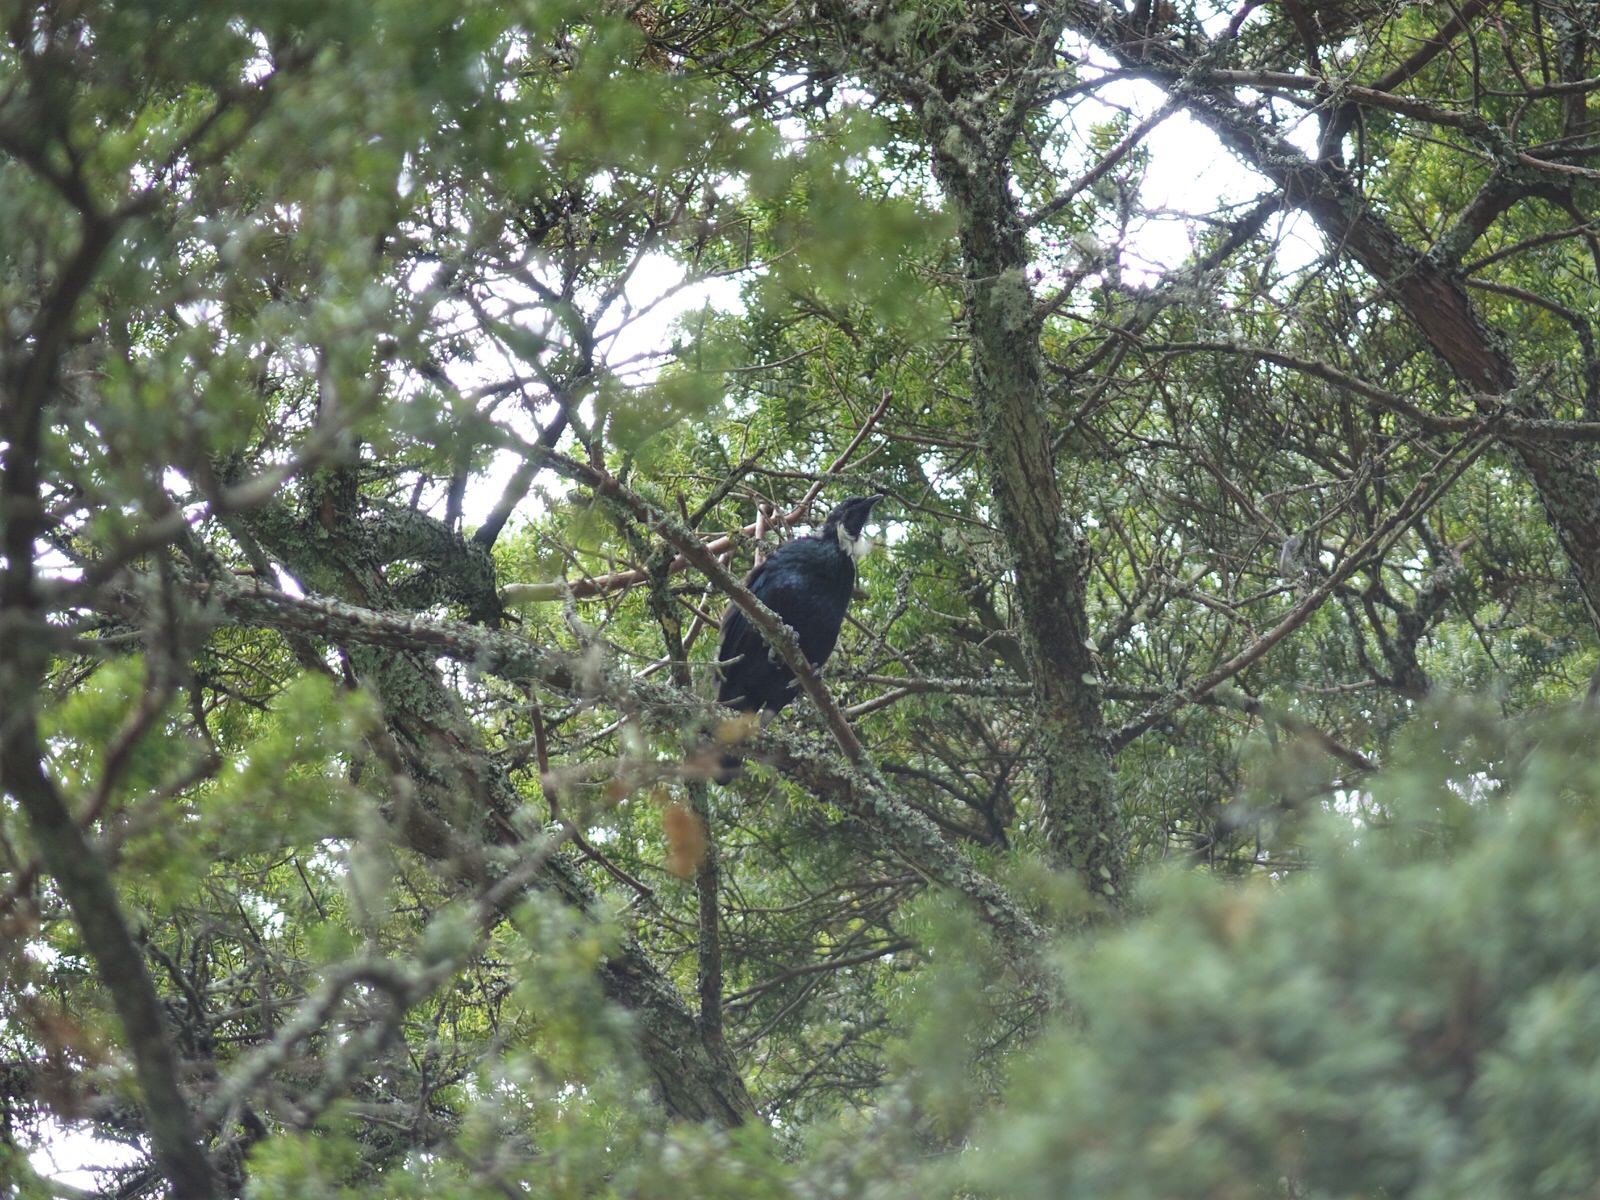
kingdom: Animalia
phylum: Chordata
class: Aves
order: Passeriformes
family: Meliphagidae
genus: Prosthemadera
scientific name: Prosthemadera novaeseelandiae
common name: Tui
